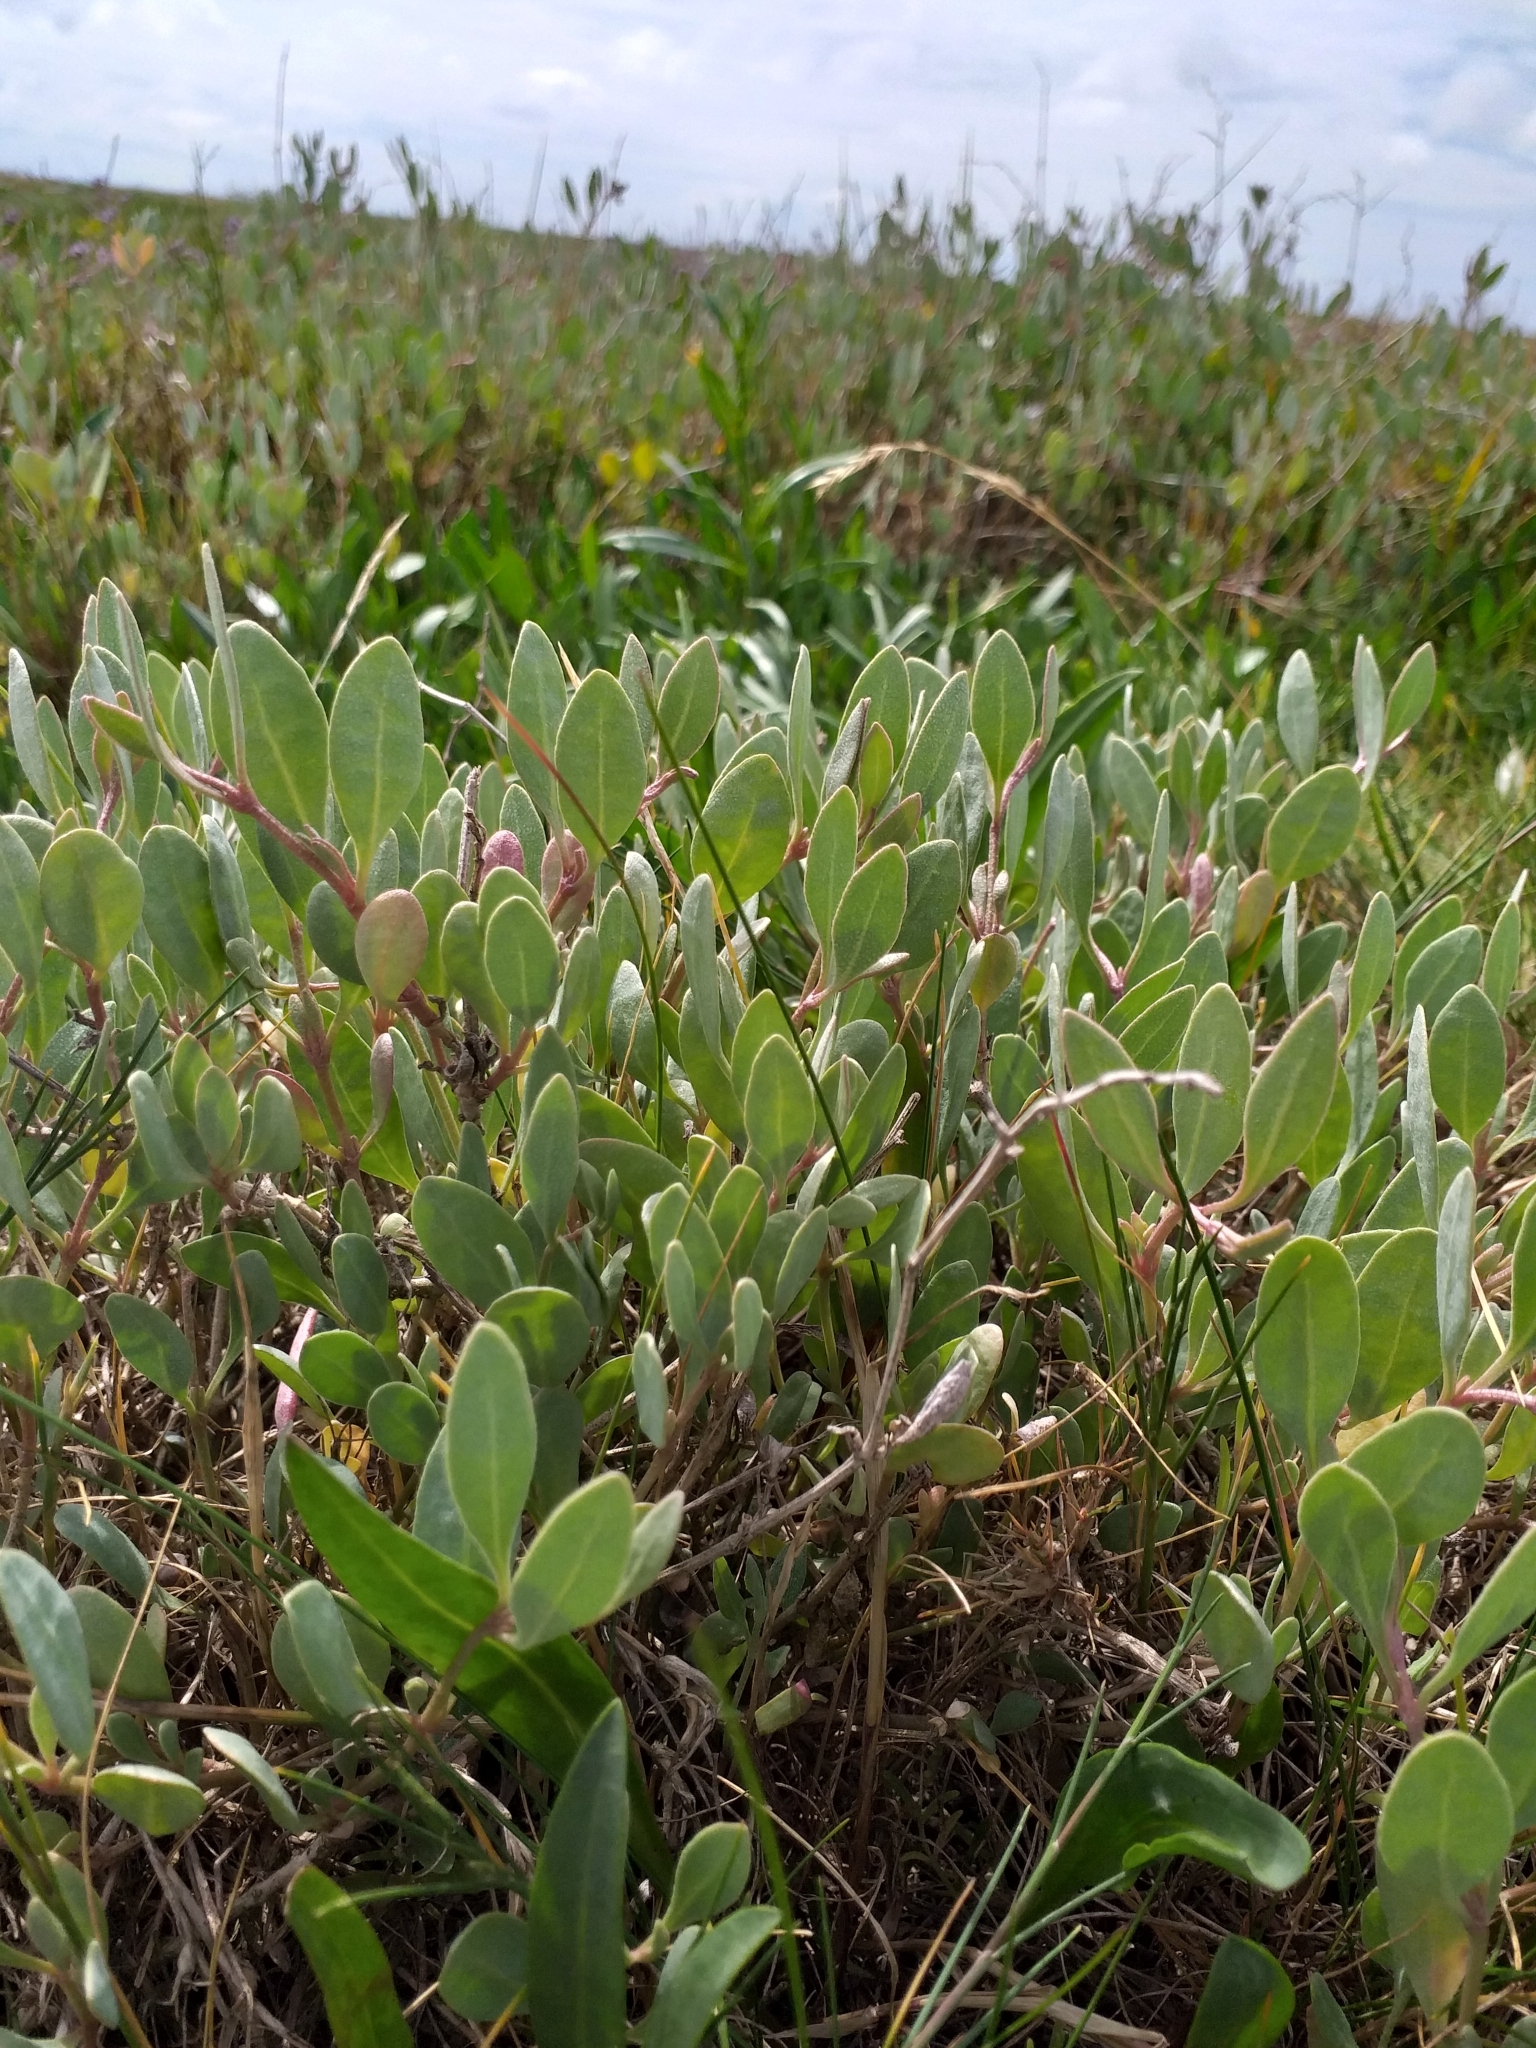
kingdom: Plantae
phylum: Tracheophyta
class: Magnoliopsida
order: Caryophyllales
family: Amaranthaceae
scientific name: Amaranthaceae
